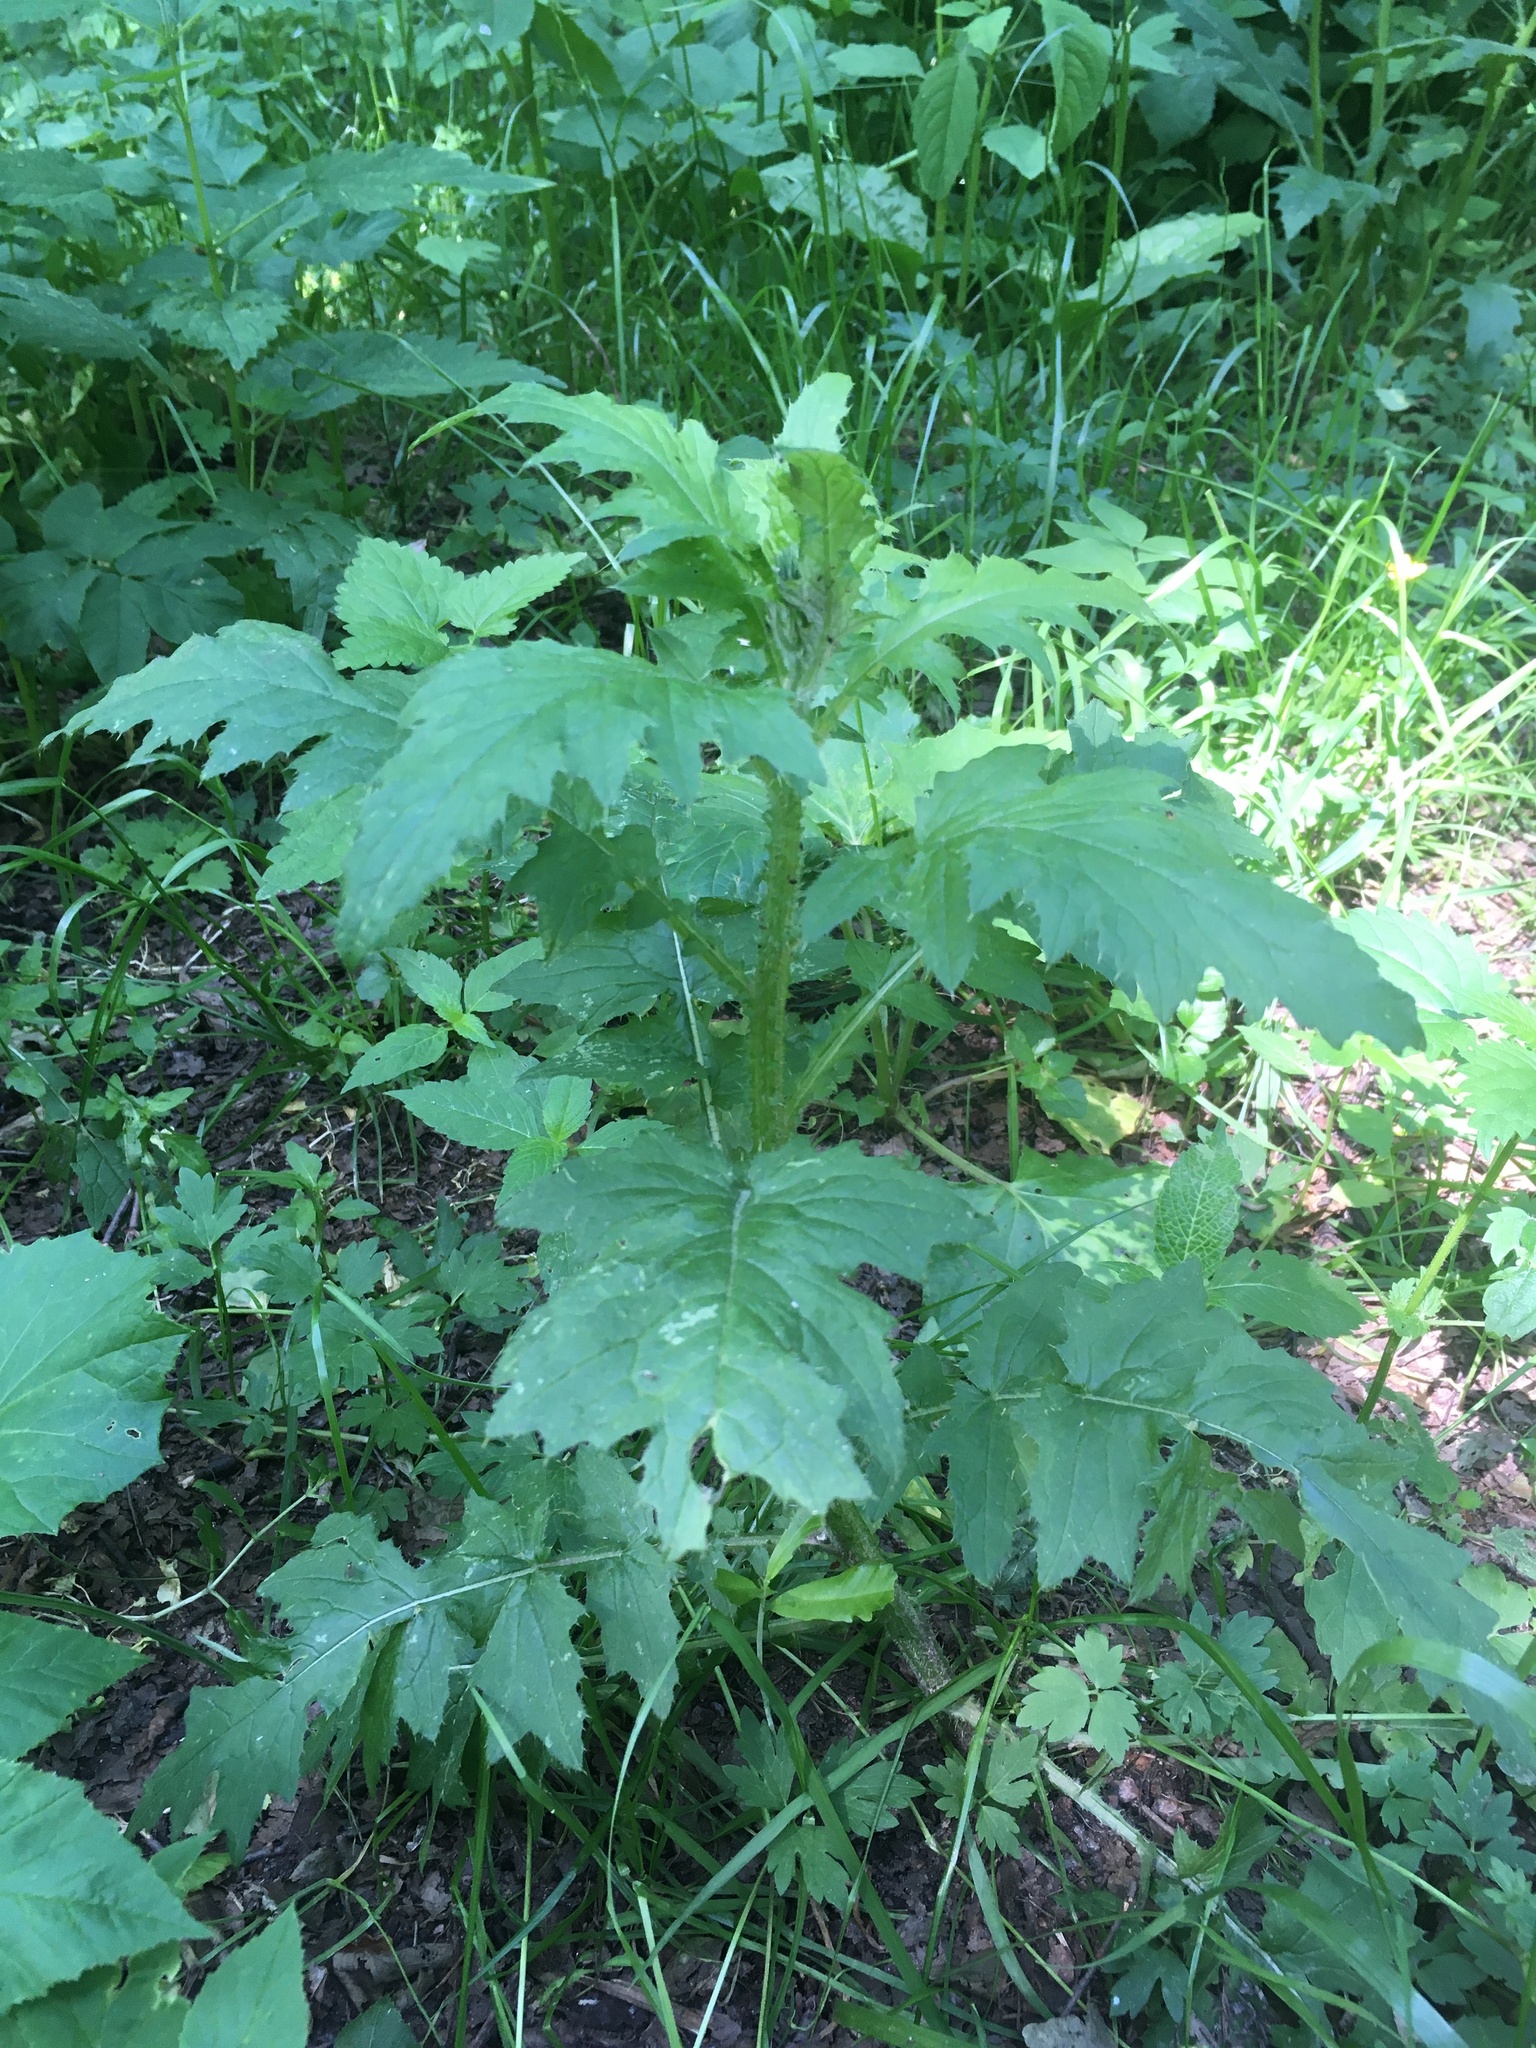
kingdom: Plantae
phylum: Tracheophyta
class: Magnoliopsida
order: Asterales
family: Asteraceae
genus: Carduus
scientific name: Carduus crispus
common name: Welted thistle
